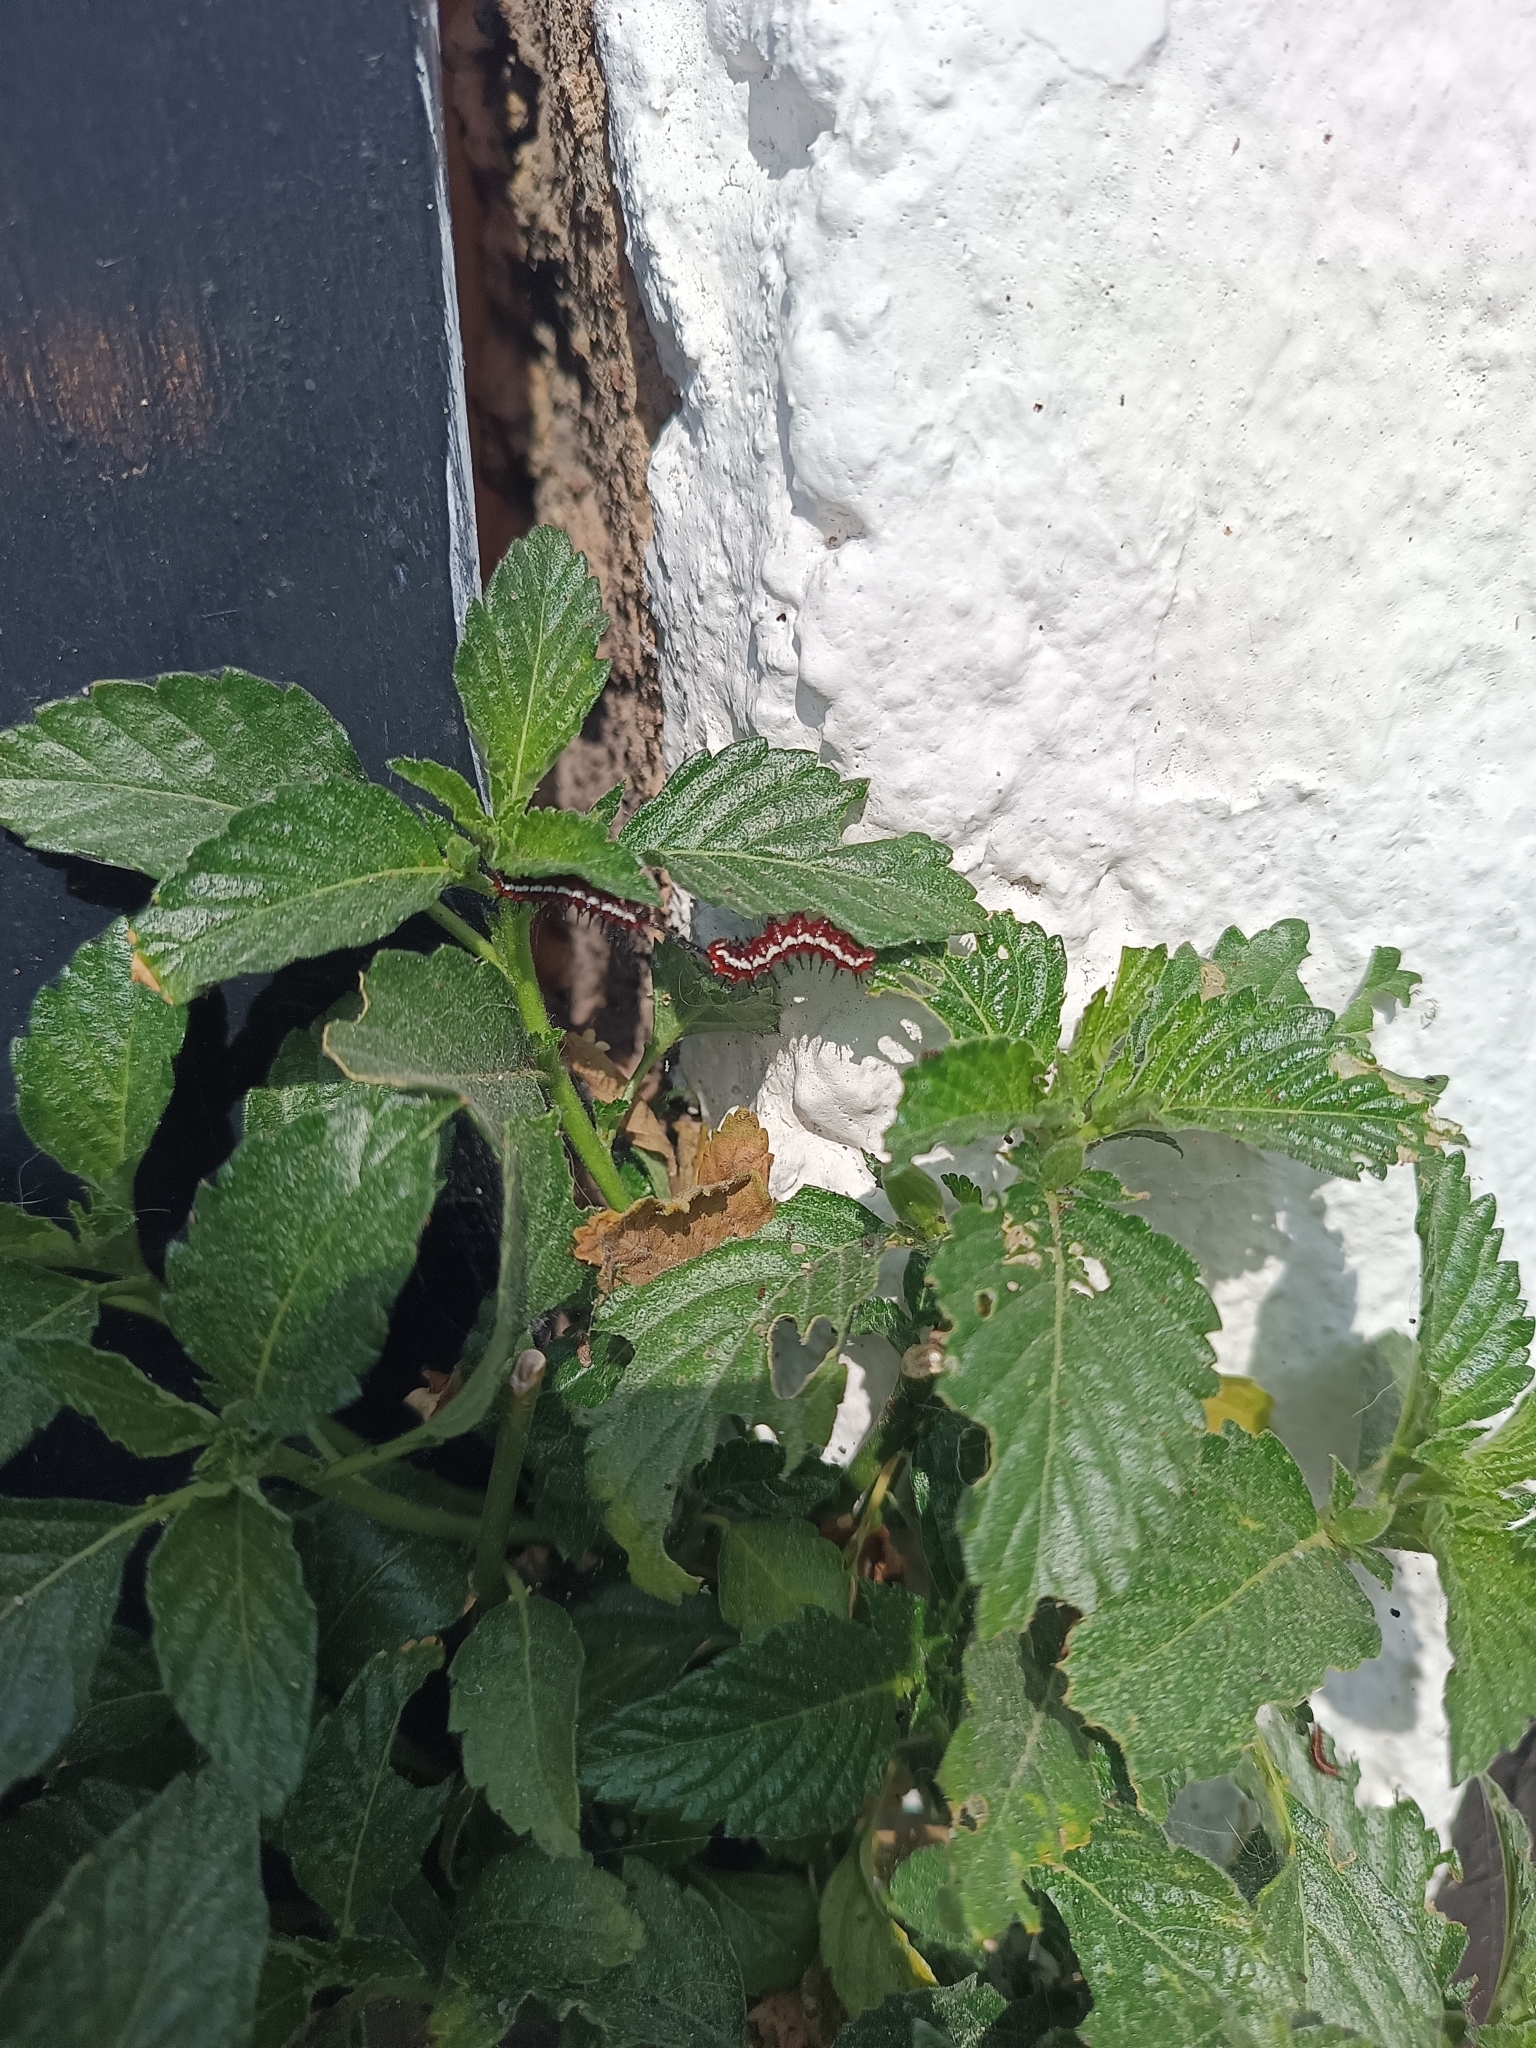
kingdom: Animalia
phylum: Arthropoda
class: Insecta
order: Lepidoptera
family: Nymphalidae
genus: Euptoieta
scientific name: Euptoieta hegesia
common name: Mexican fritillary
